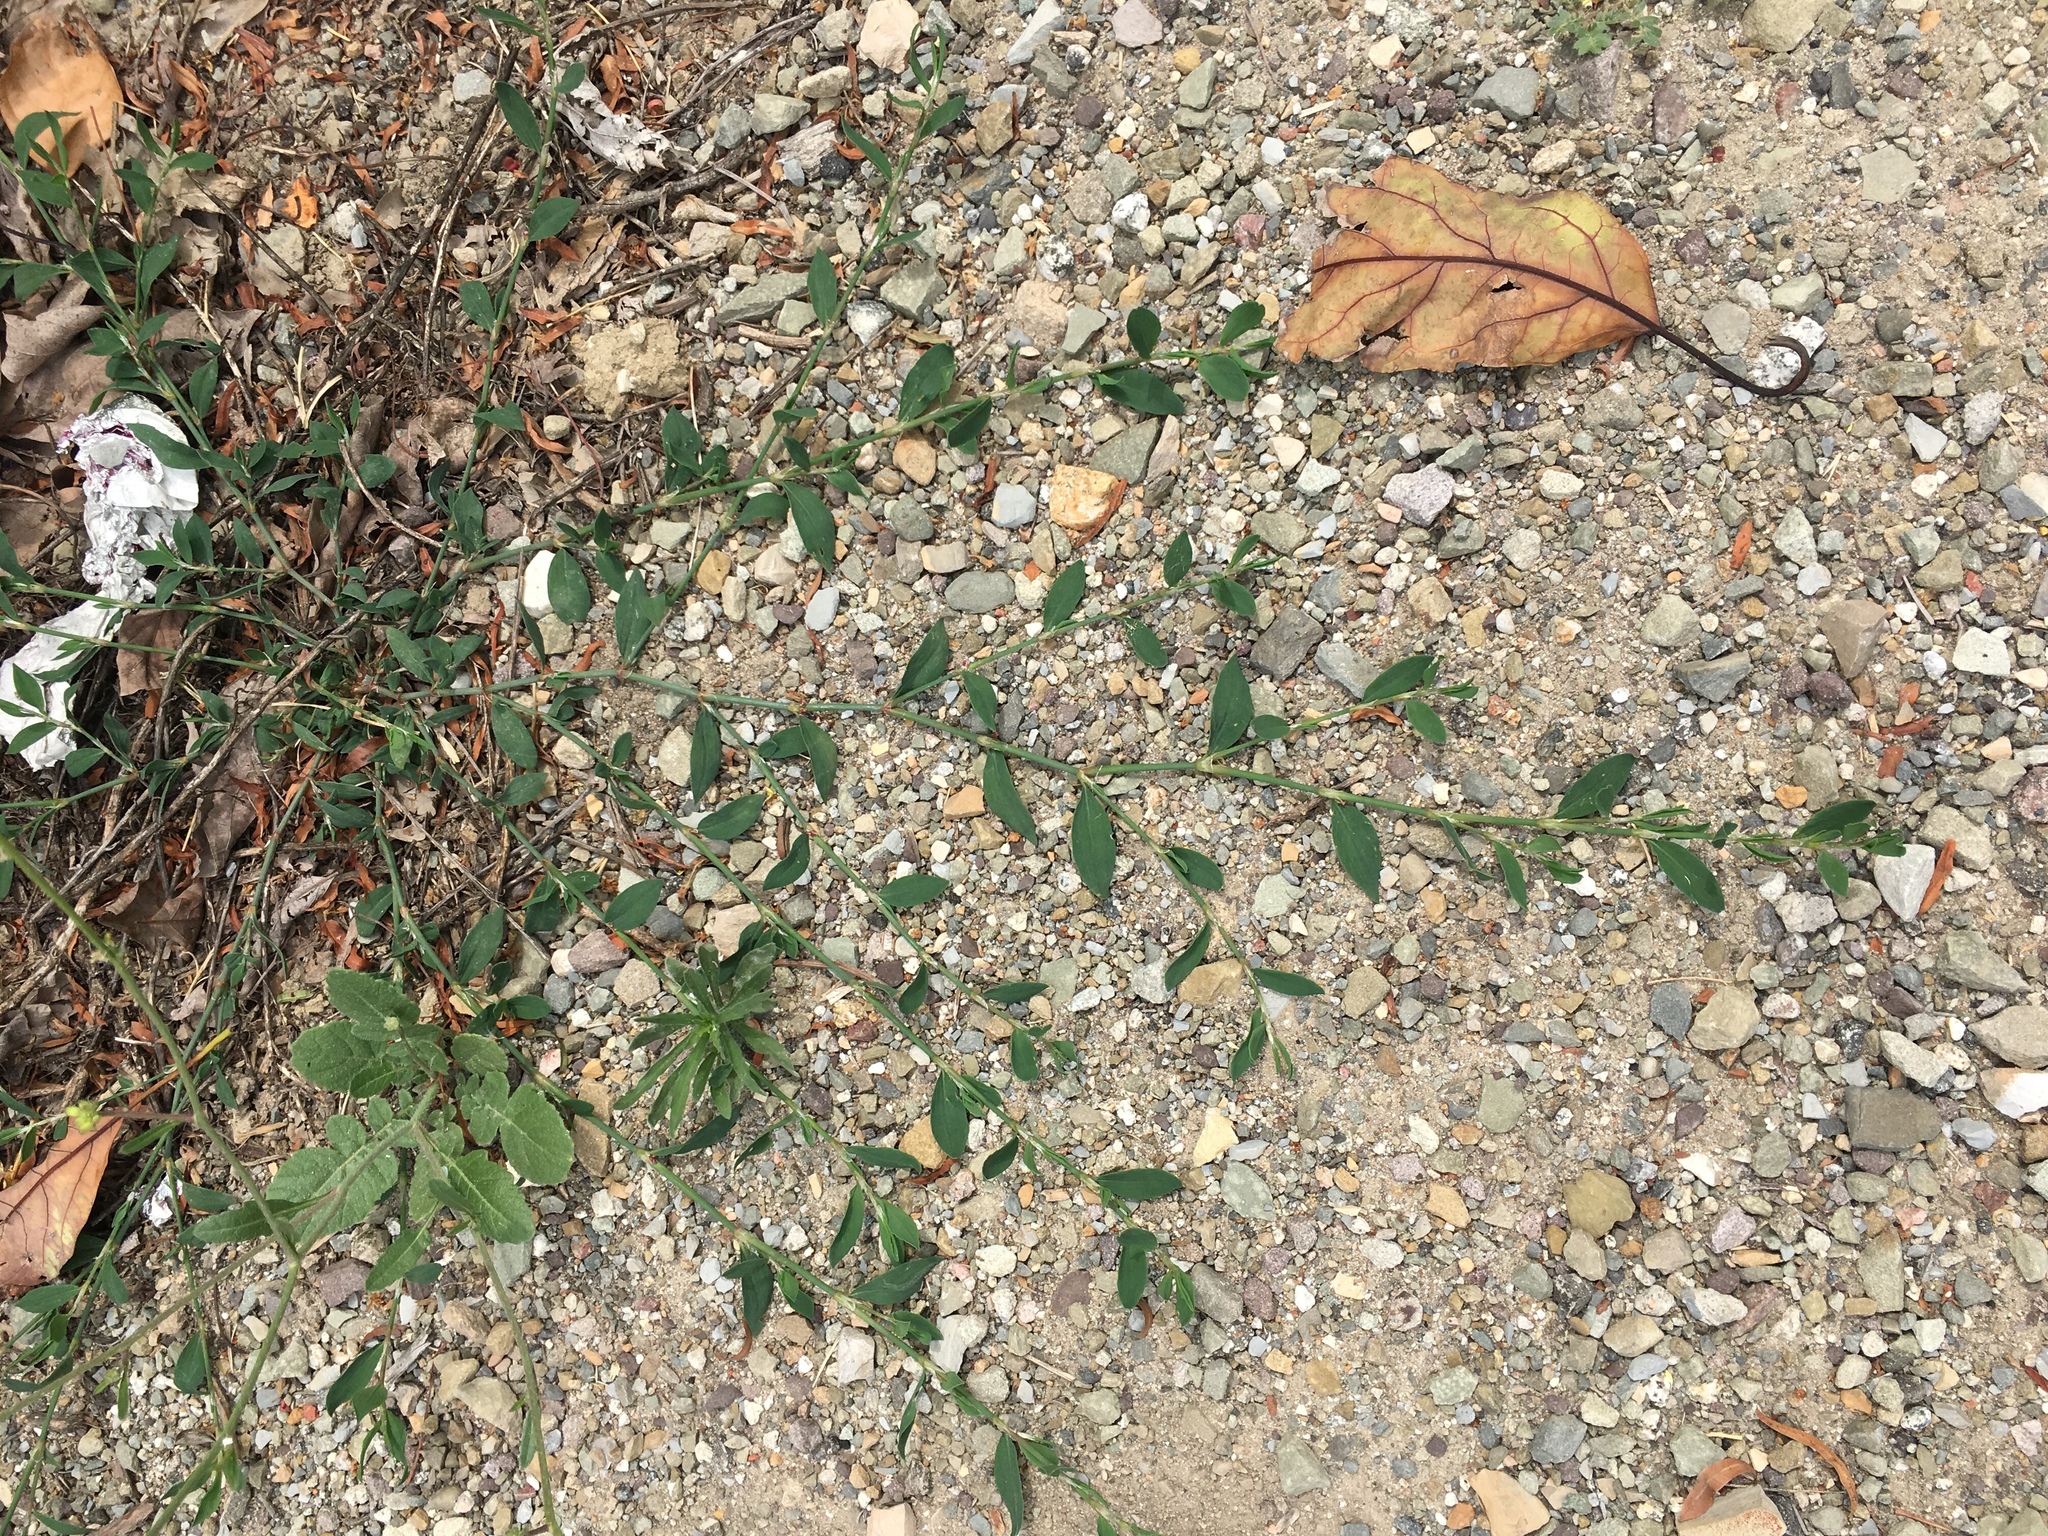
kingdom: Plantae
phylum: Tracheophyta
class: Magnoliopsida
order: Caryophyllales
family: Polygonaceae
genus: Polygonum
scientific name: Polygonum aviculare
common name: Prostrate knotweed
